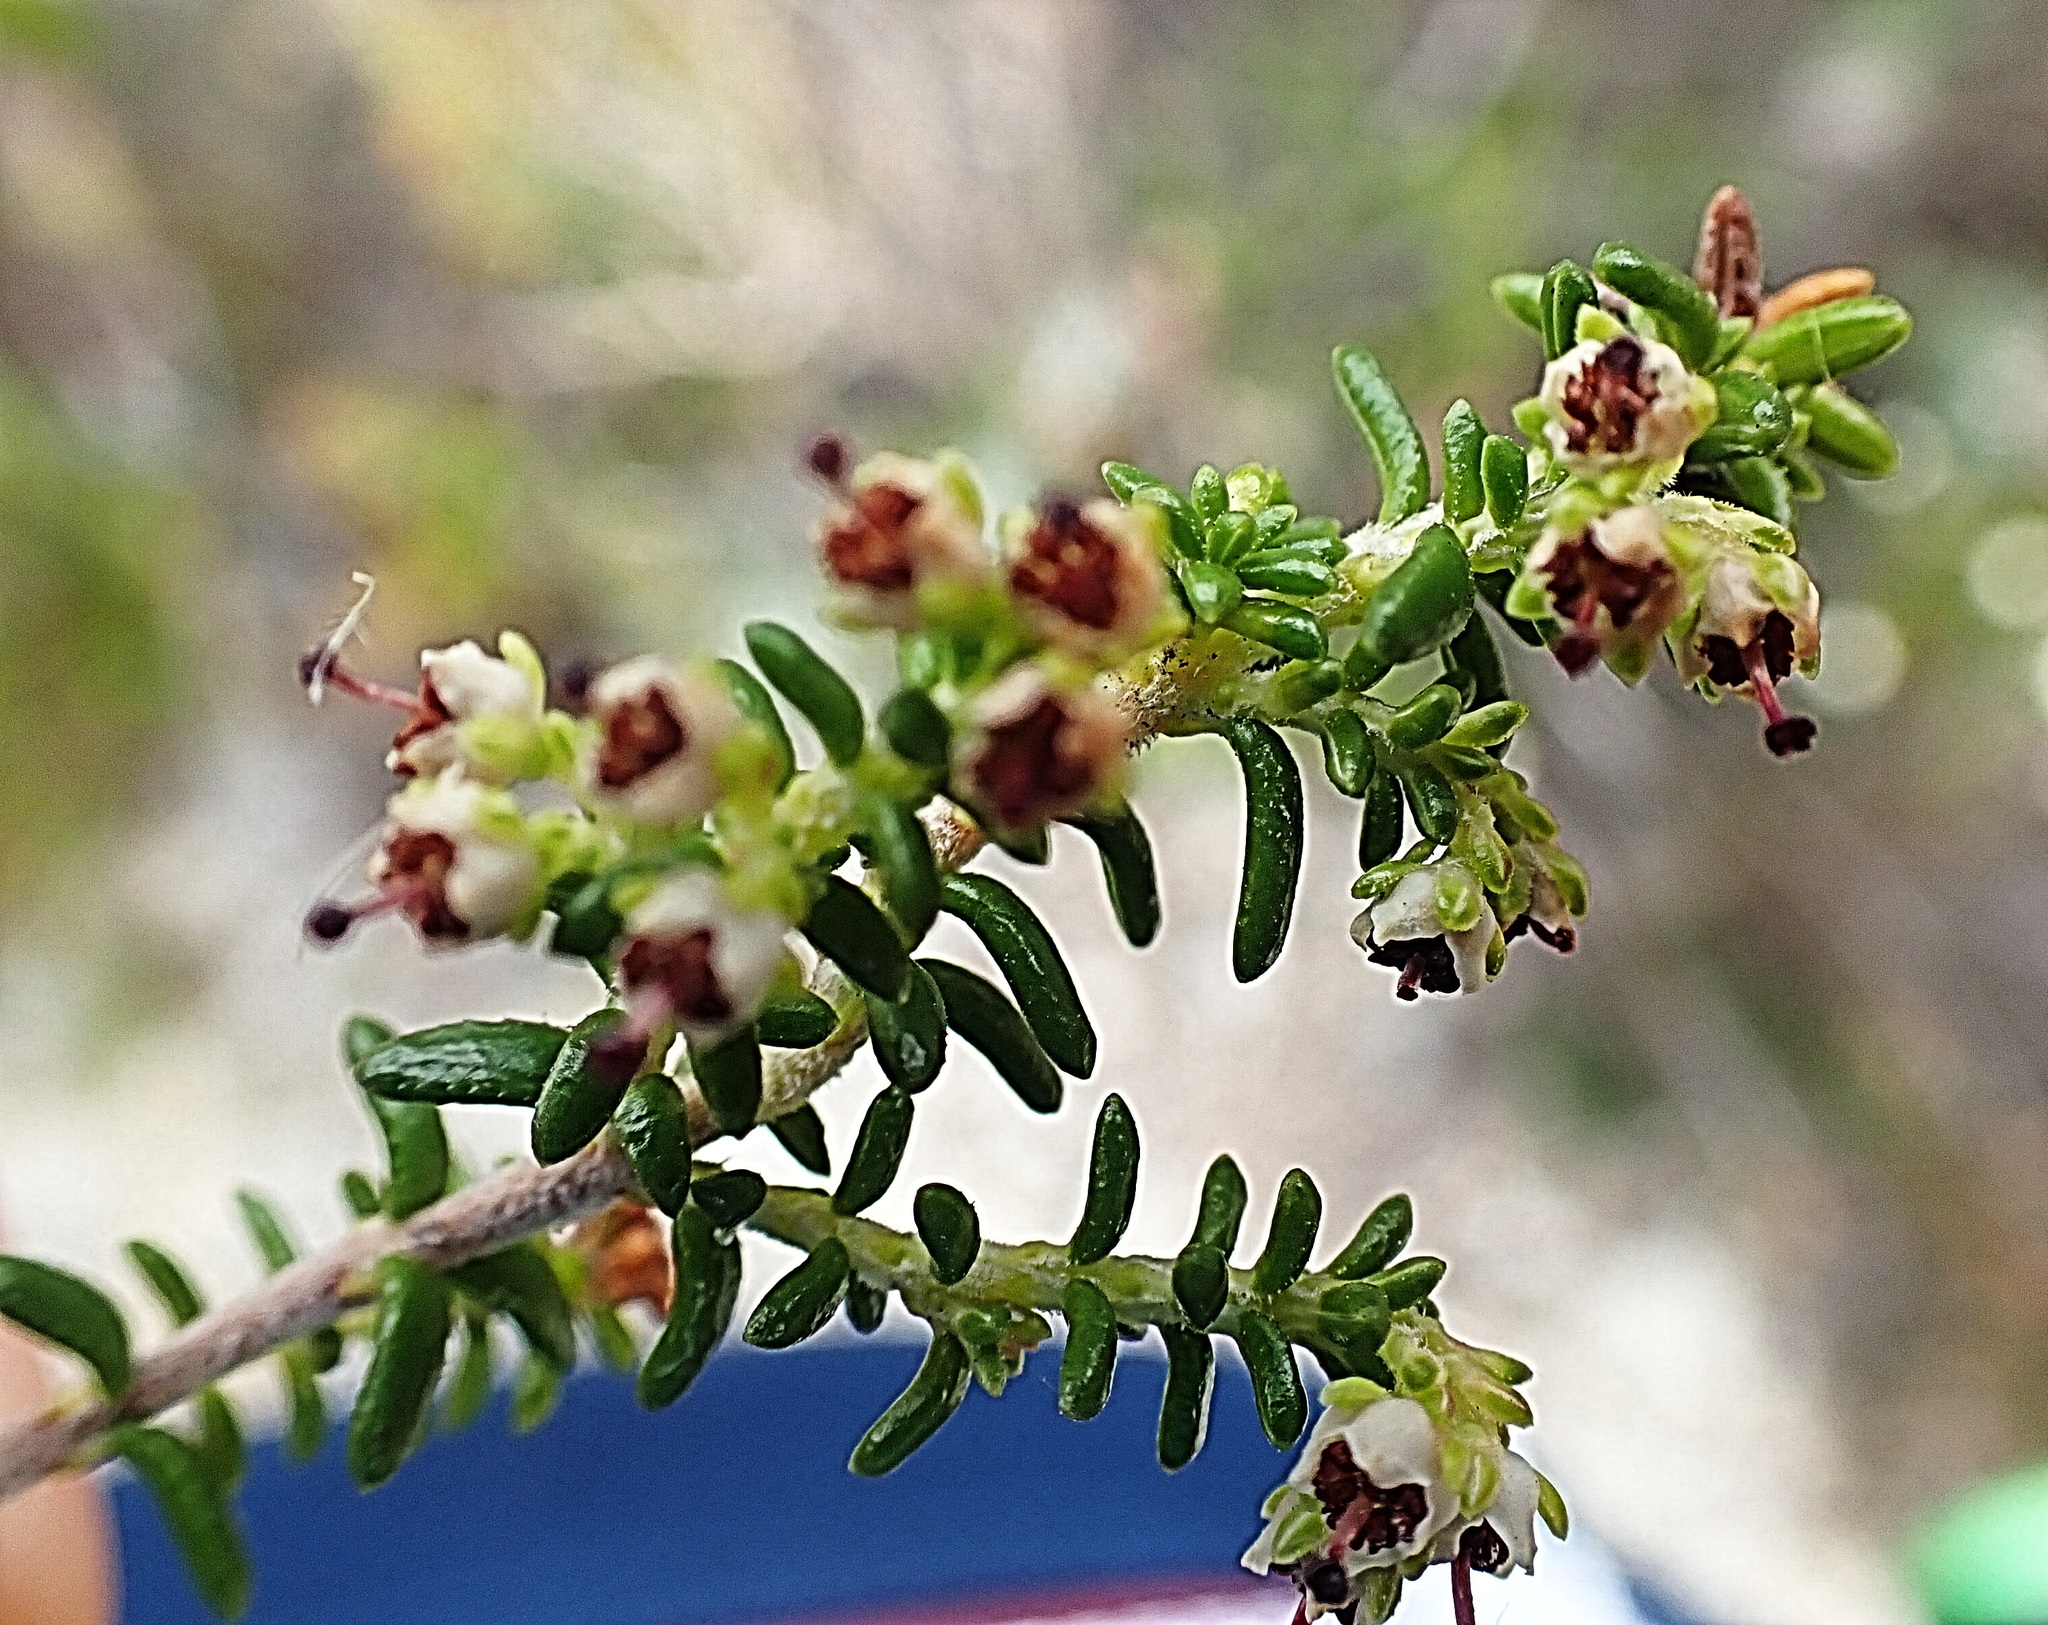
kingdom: Plantae
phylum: Tracheophyta
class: Magnoliopsida
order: Ericales
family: Ericaceae
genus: Erica
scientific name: Erica arenaria
